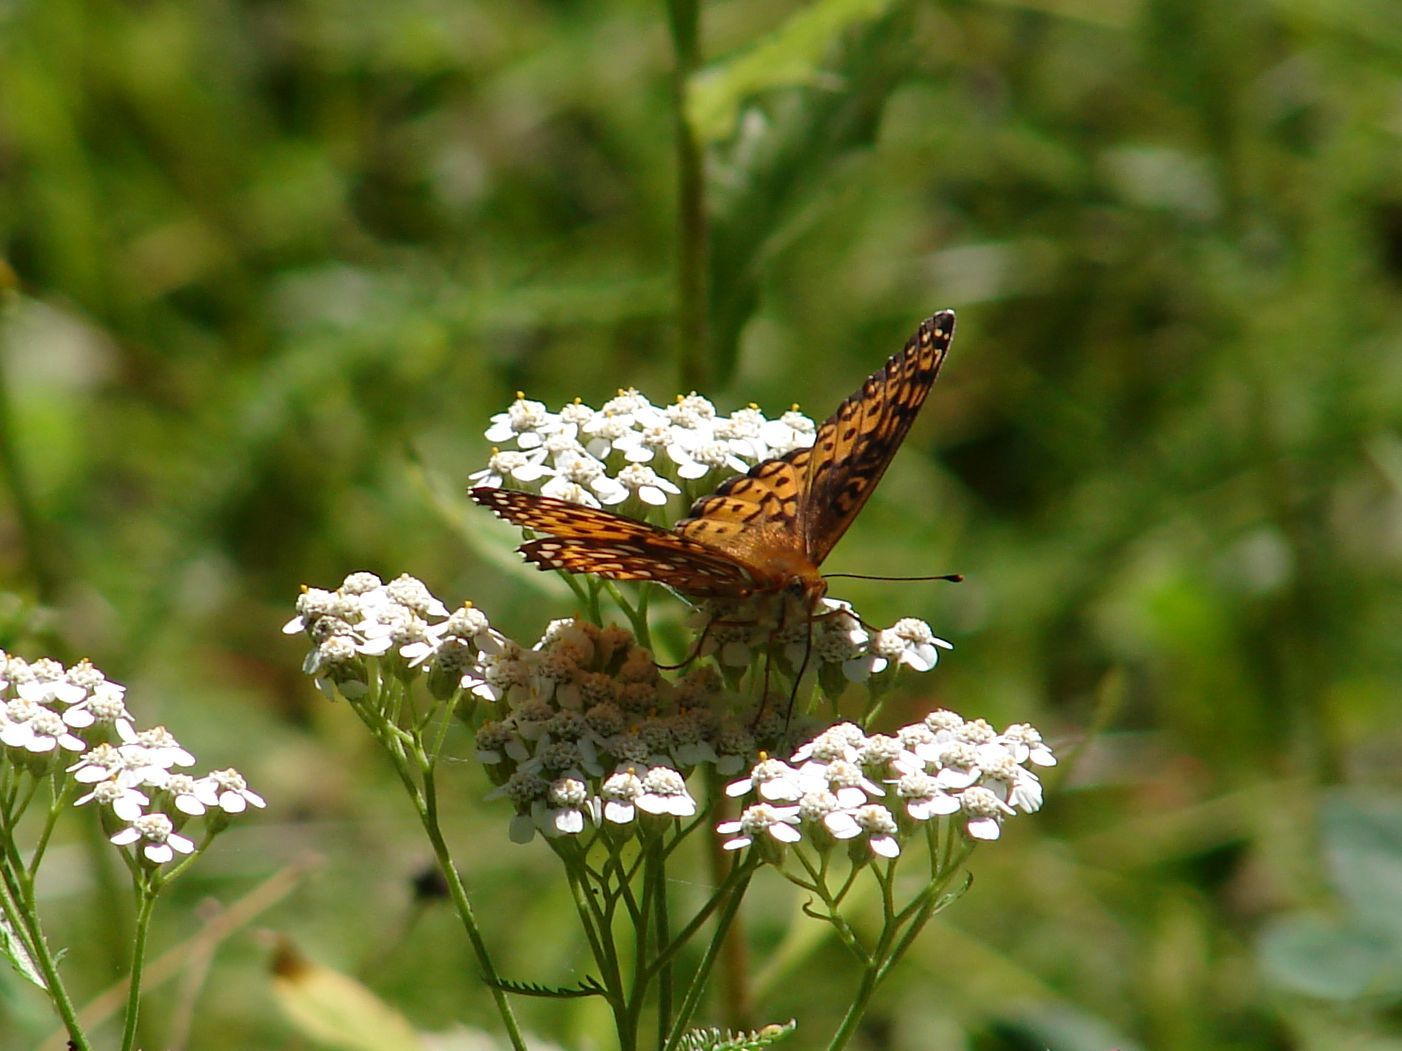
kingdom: Animalia
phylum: Arthropoda
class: Insecta
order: Lepidoptera
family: Nymphalidae
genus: Speyeria
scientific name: Speyeria atlantis
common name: Atlantis fritillary
